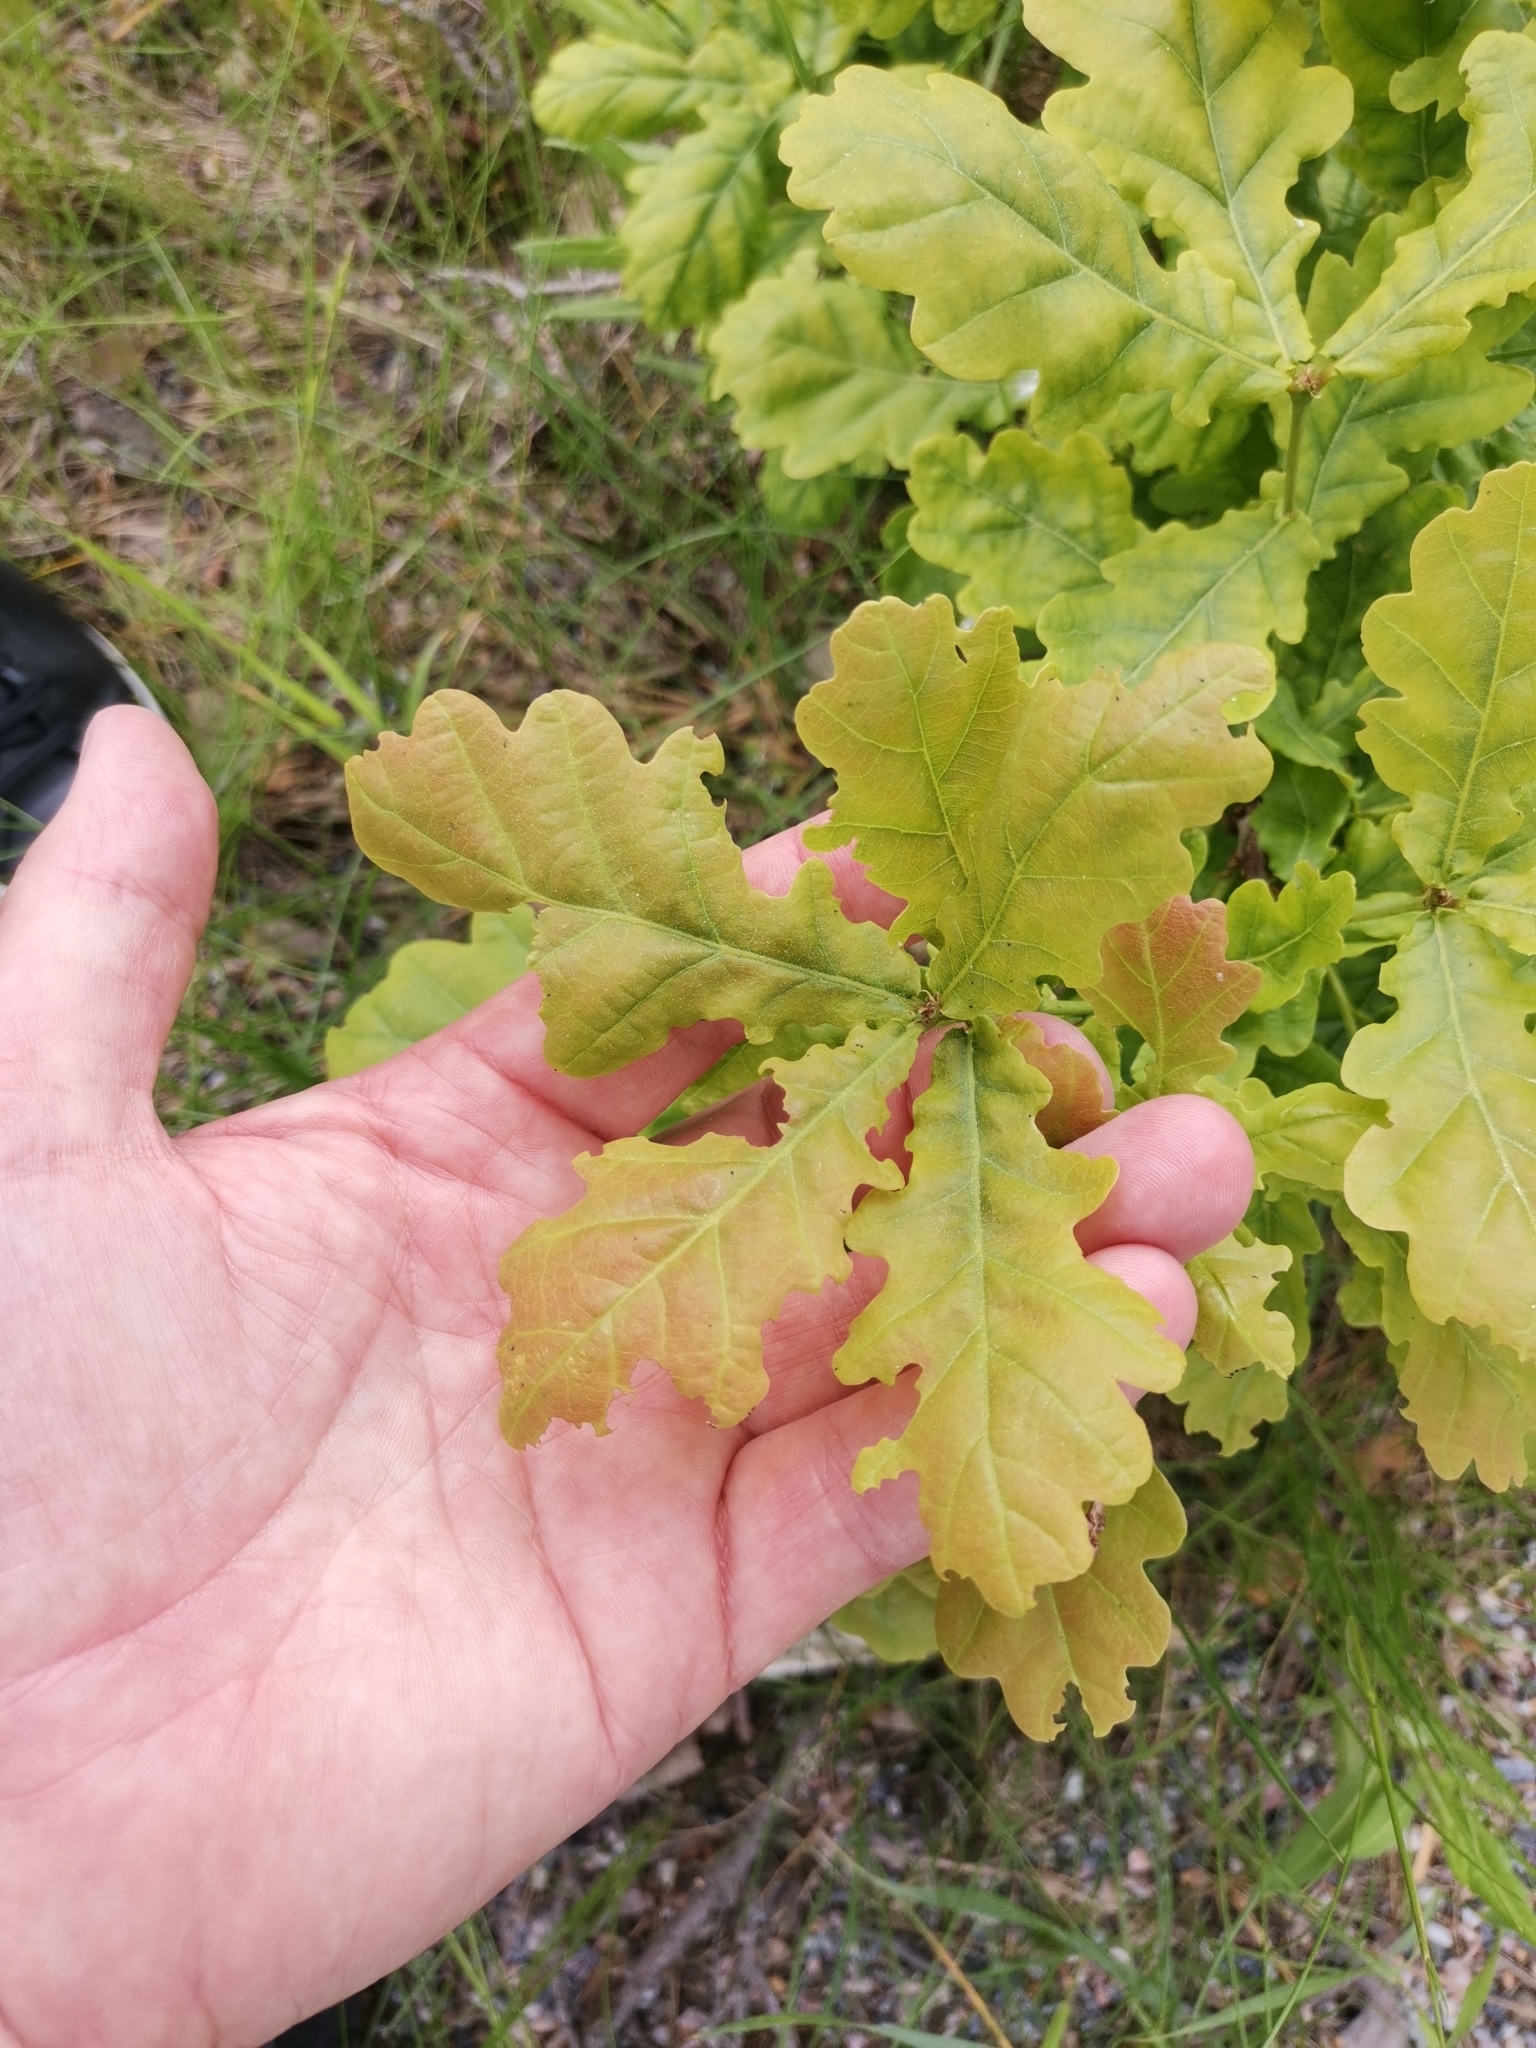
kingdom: Plantae
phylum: Tracheophyta
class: Magnoliopsida
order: Fagales
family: Fagaceae
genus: Quercus
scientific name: Quercus robur
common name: Pedunculate oak
